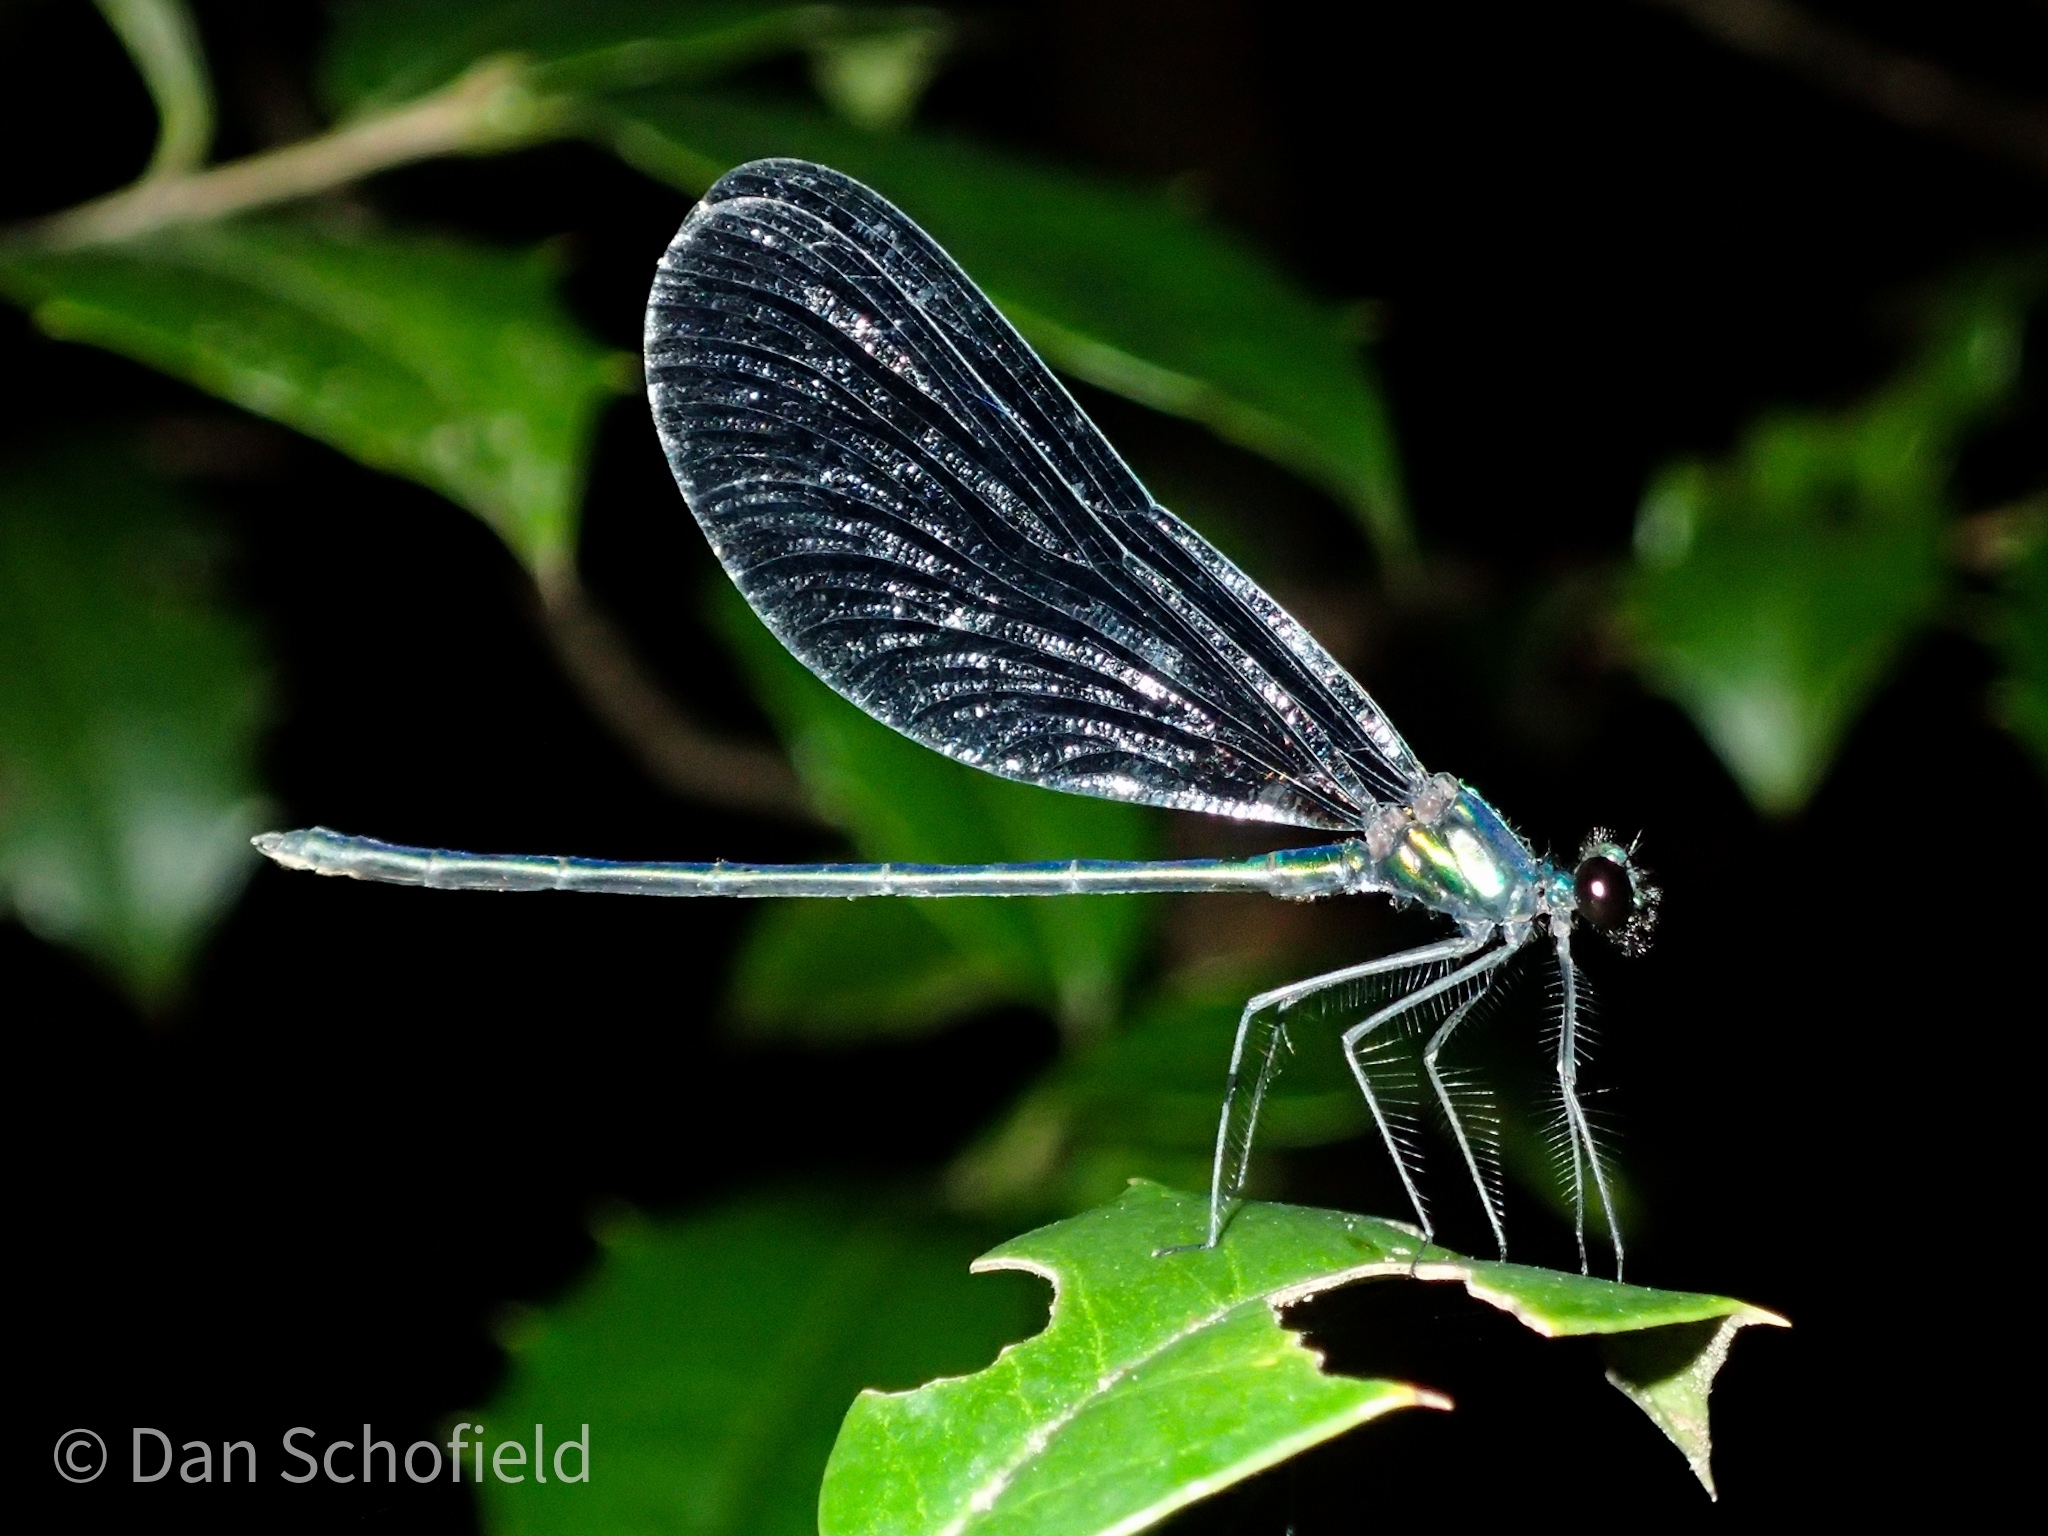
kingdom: Animalia
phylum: Arthropoda
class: Insecta
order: Odonata
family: Calopterygidae
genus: Calopteryx
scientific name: Calopteryx maculata
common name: Ebony jewelwing
